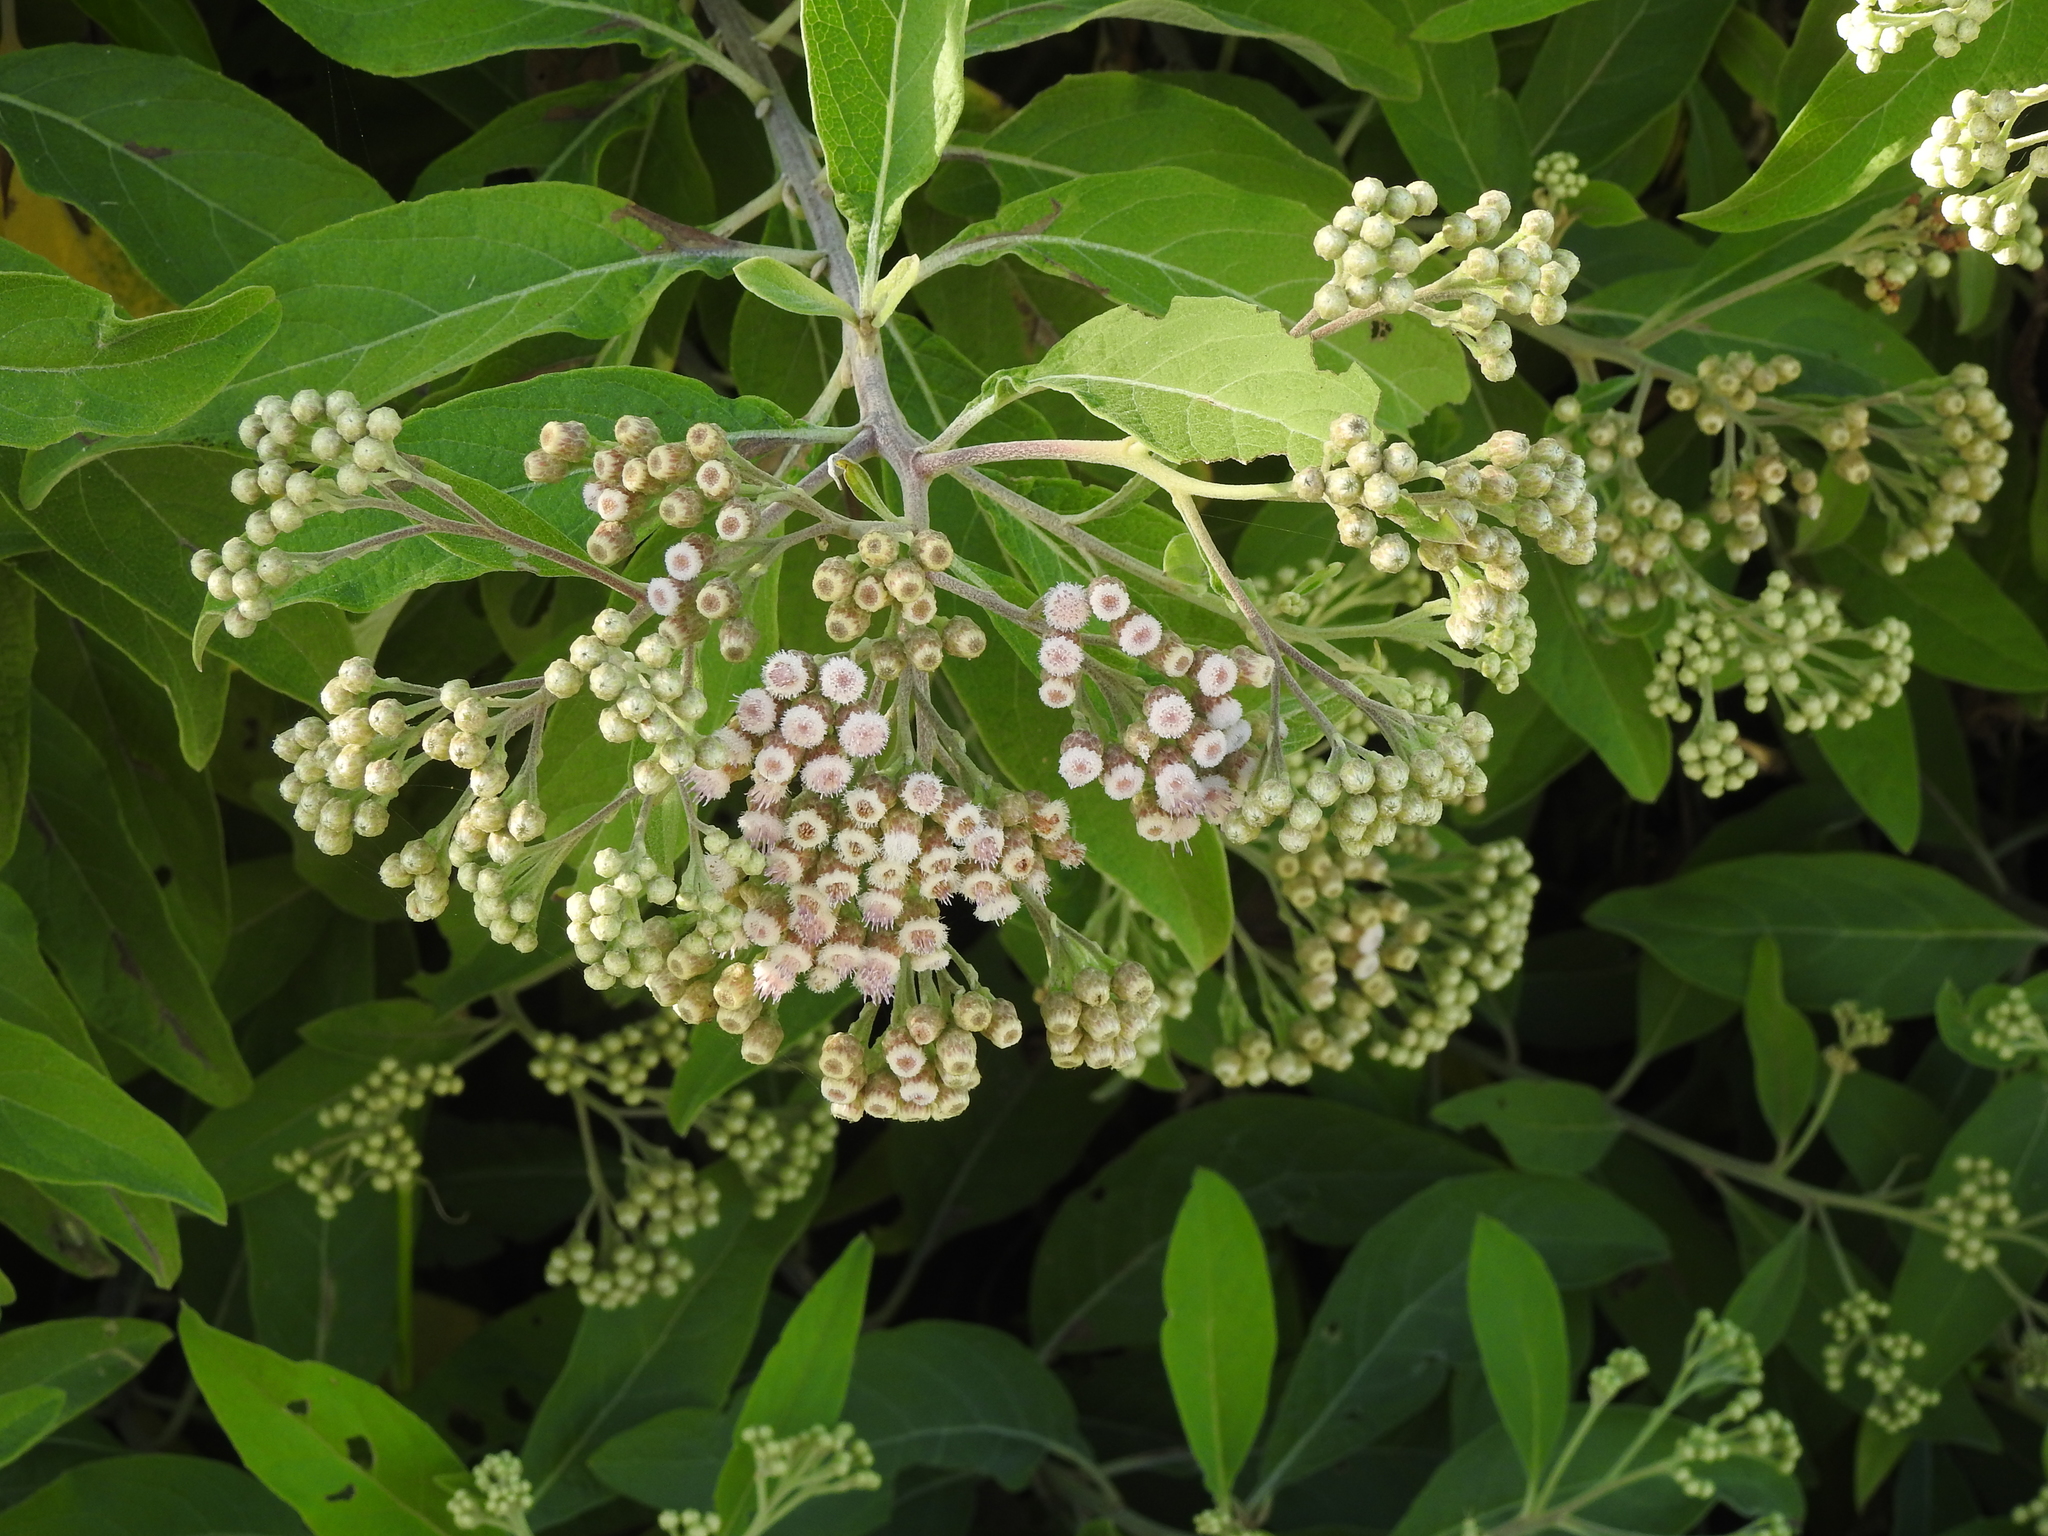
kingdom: Plantae
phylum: Tracheophyta
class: Magnoliopsida
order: Asterales
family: Asteraceae
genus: Pluchea
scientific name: Pluchea carolinensis
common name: Marsh fleabane
